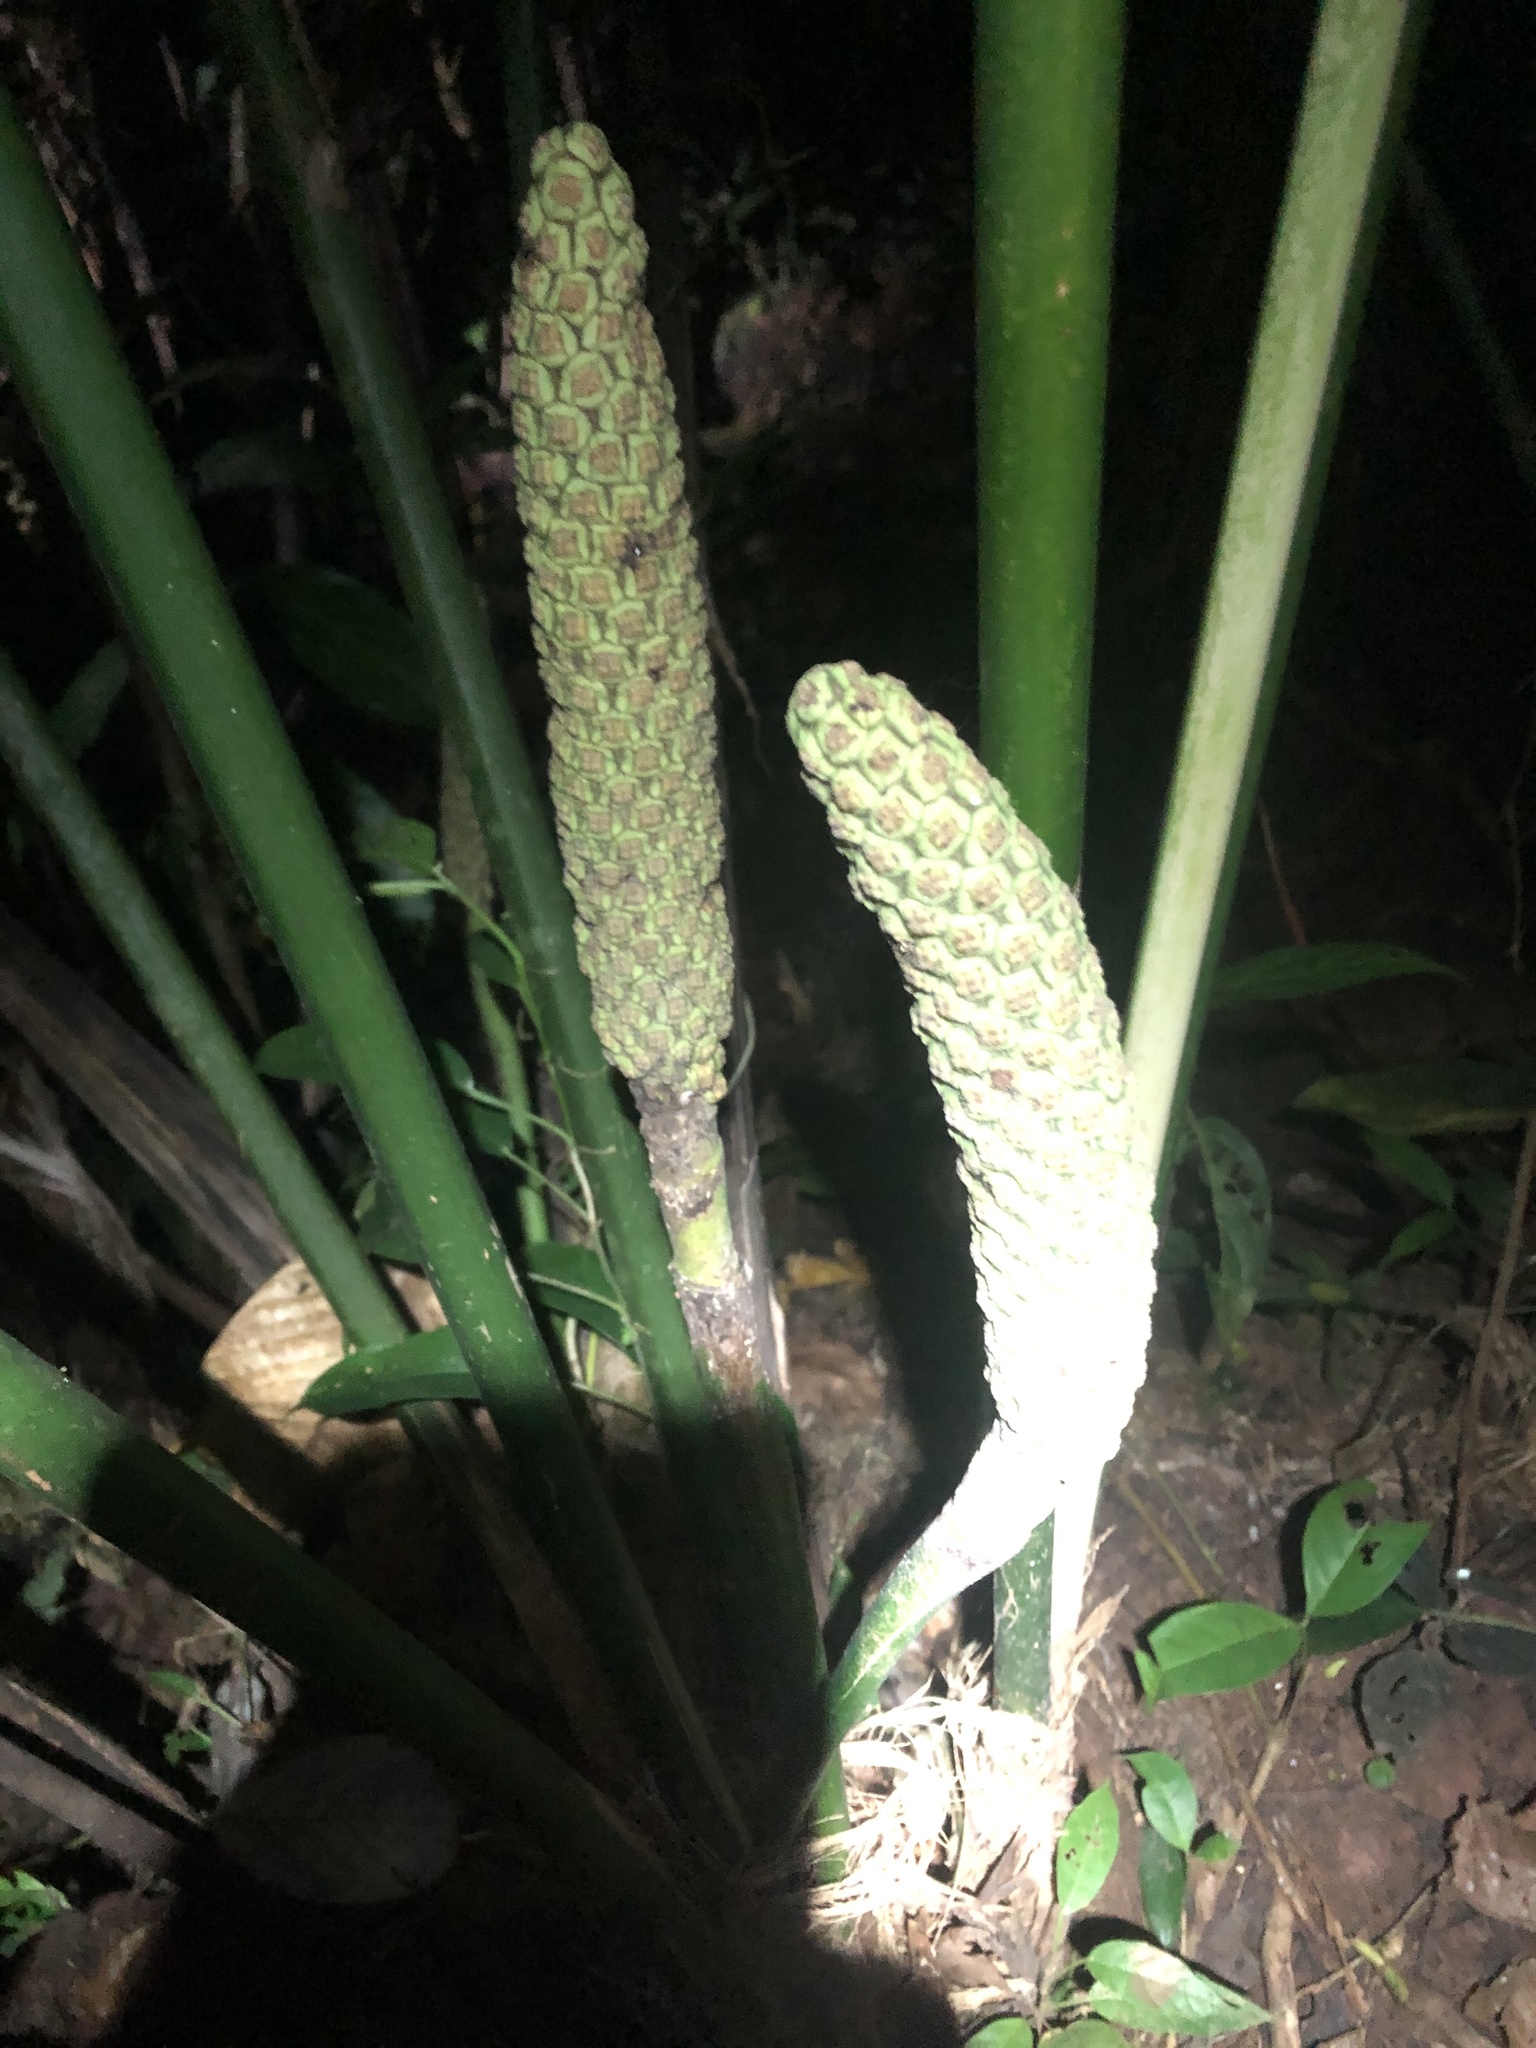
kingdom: Plantae
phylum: Tracheophyta
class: Liliopsida
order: Pandanales
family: Cyclanthaceae
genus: Carludovica
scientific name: Carludovica palmata
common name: Panama hat plant
